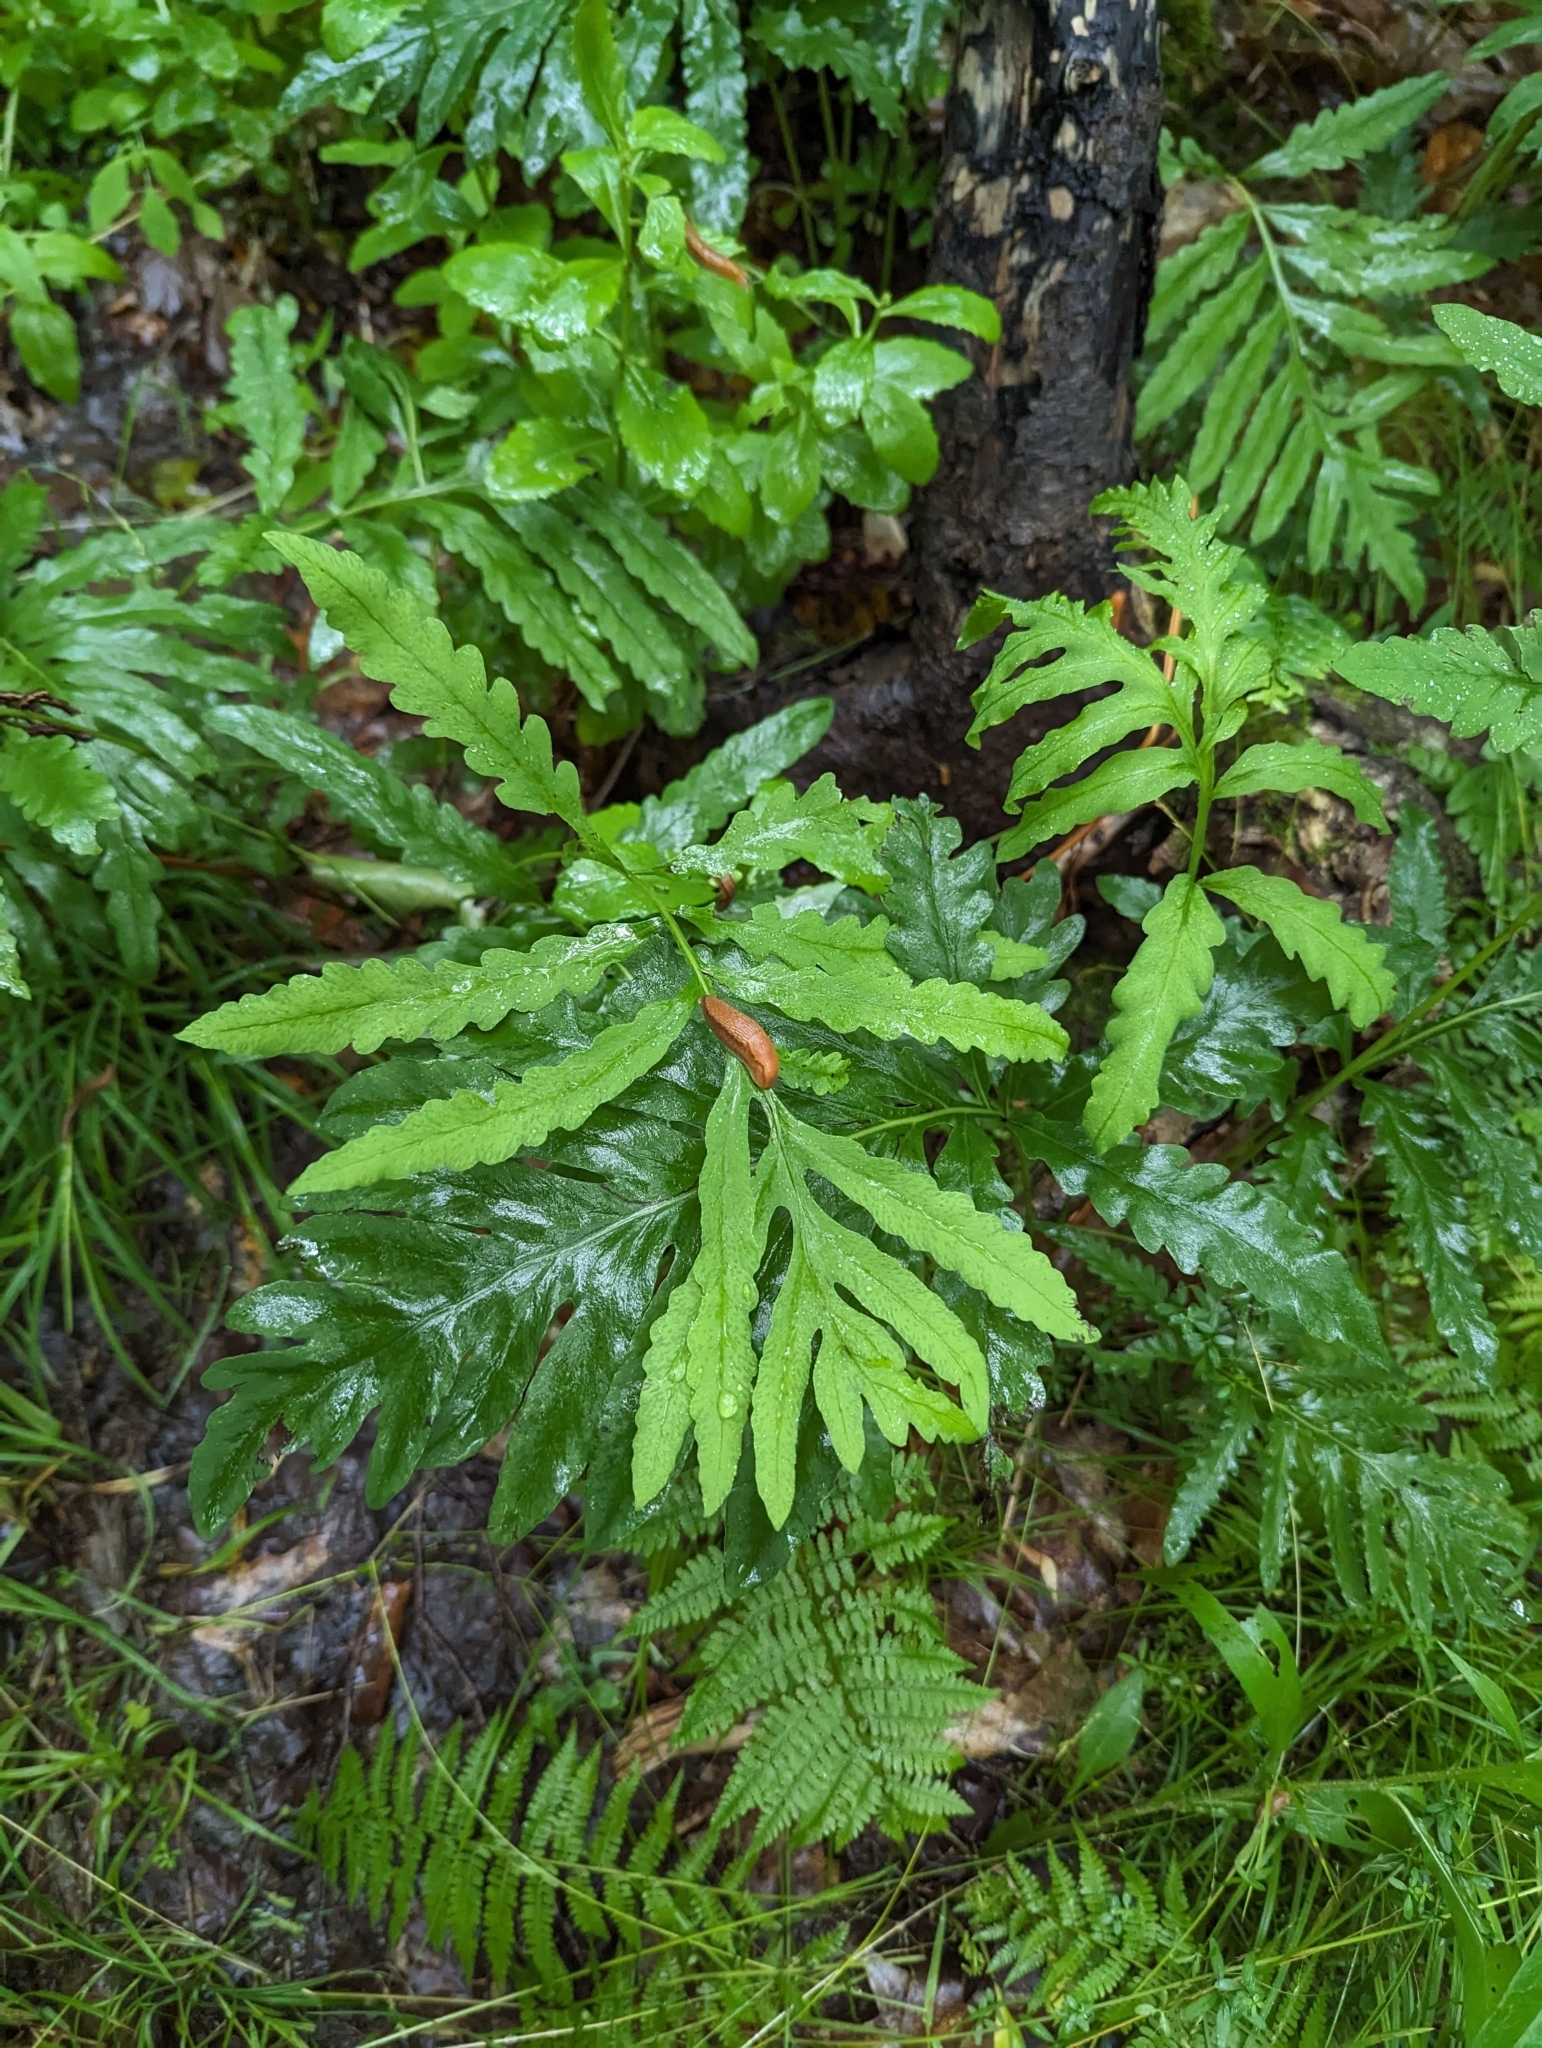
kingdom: Plantae
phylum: Tracheophyta
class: Polypodiopsida
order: Polypodiales
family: Onocleaceae
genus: Onoclea
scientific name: Onoclea sensibilis
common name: Sensitive fern
